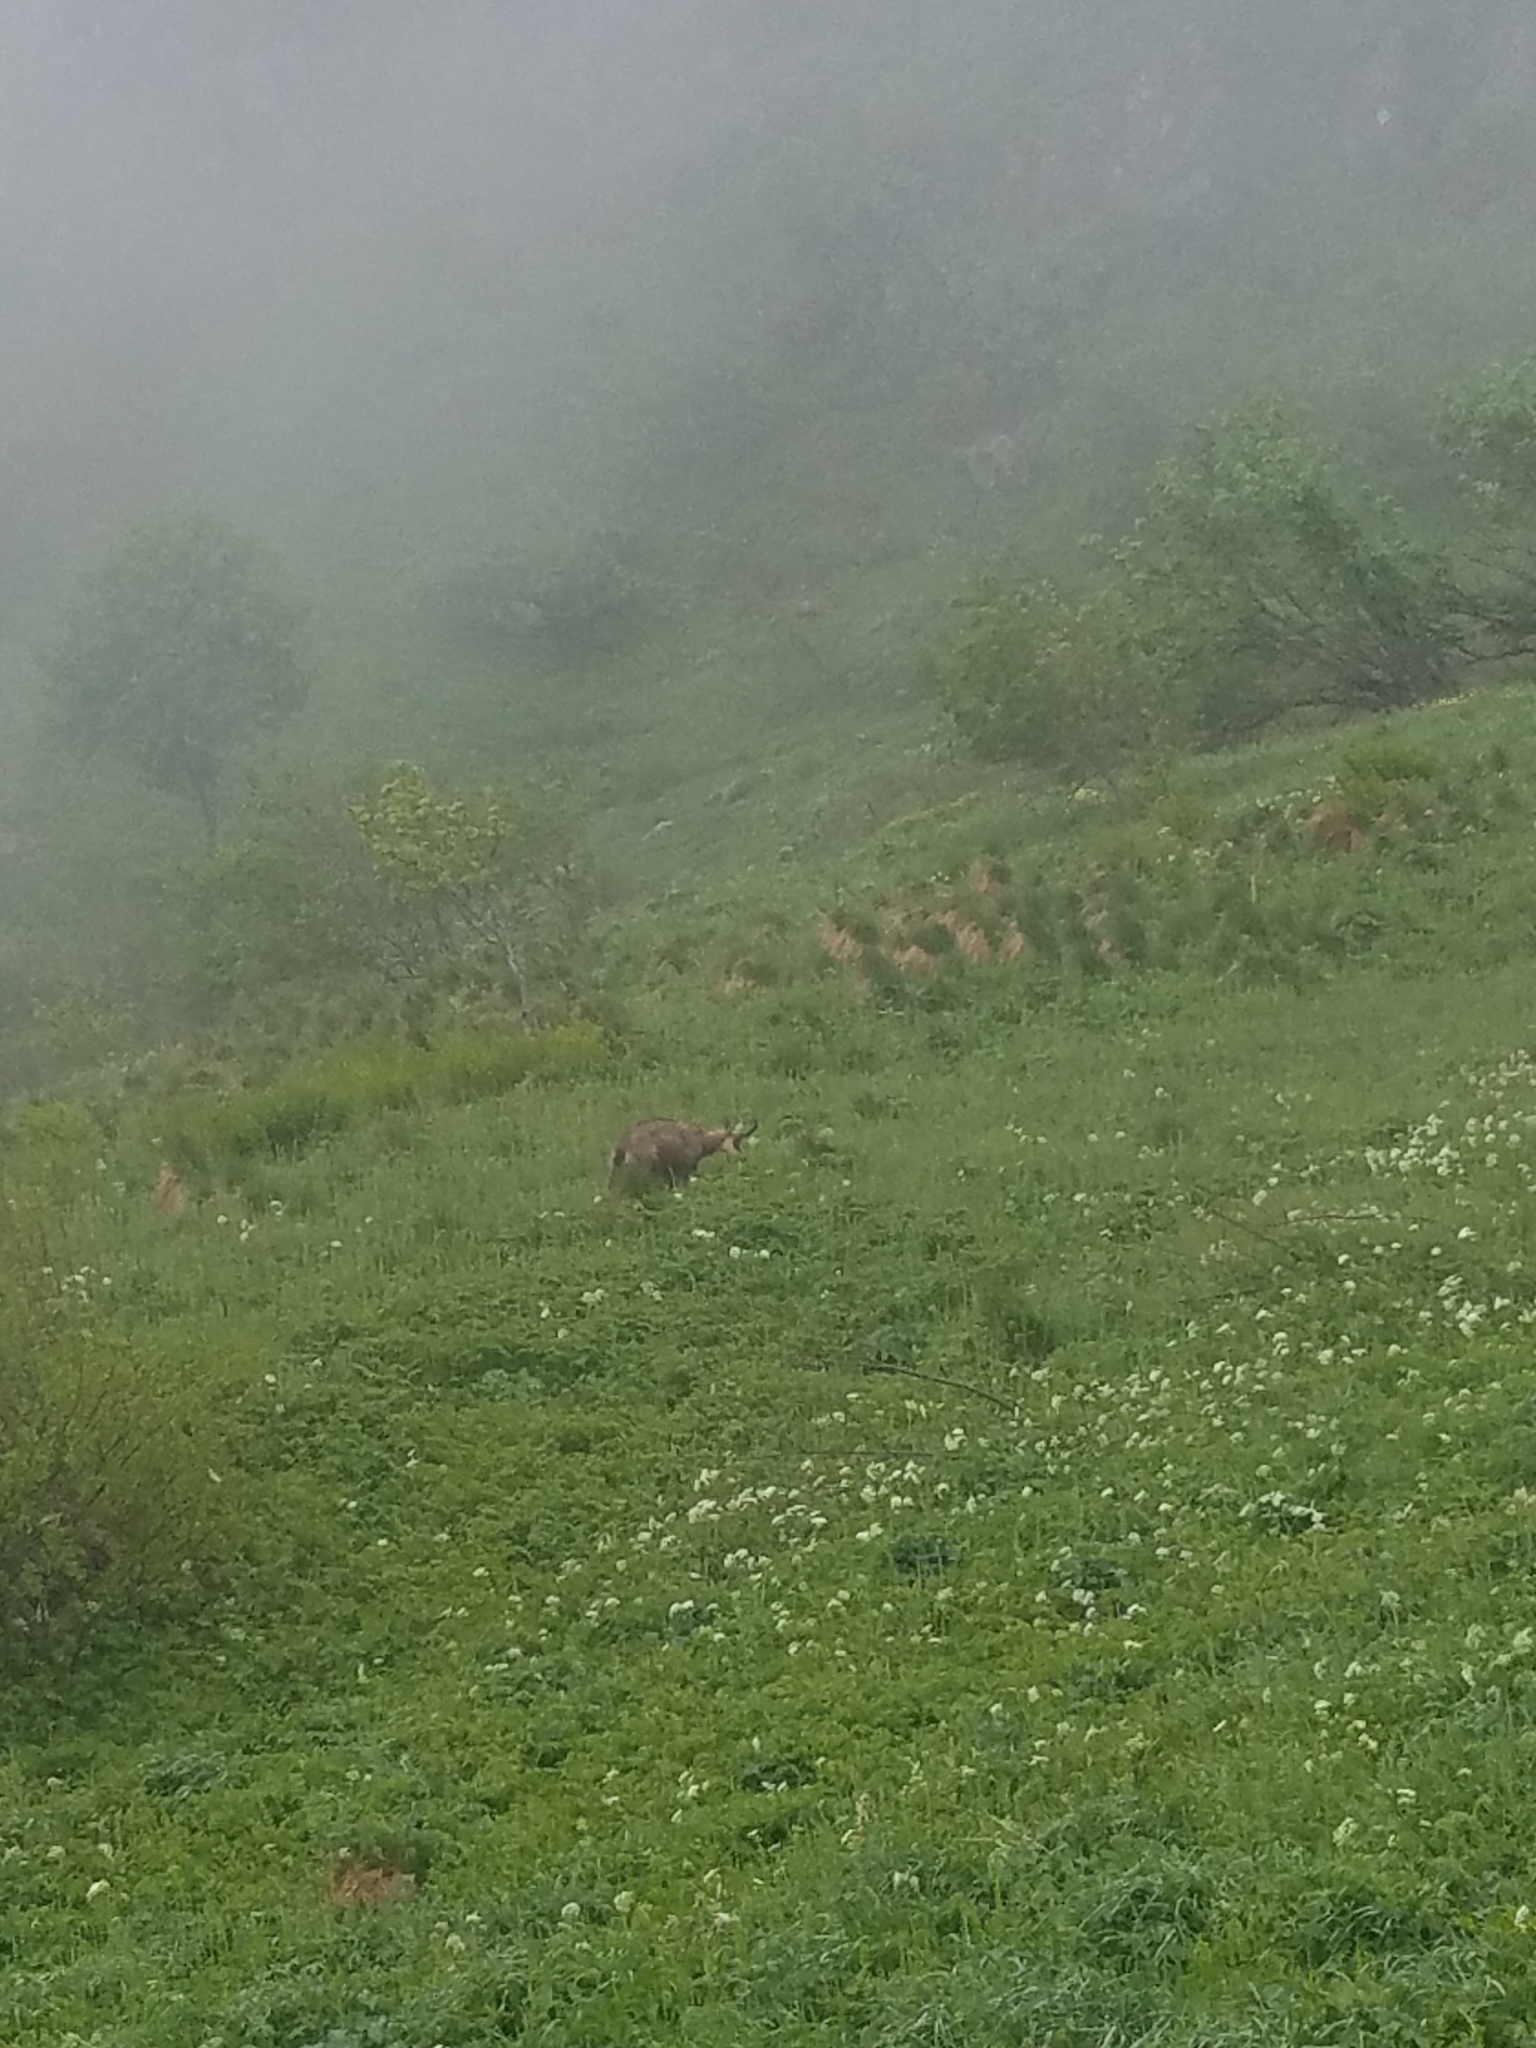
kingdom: Animalia
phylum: Chordata
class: Mammalia
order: Artiodactyla
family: Bovidae
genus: Rupicapra
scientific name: Rupicapra rupicapra
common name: Chamois
